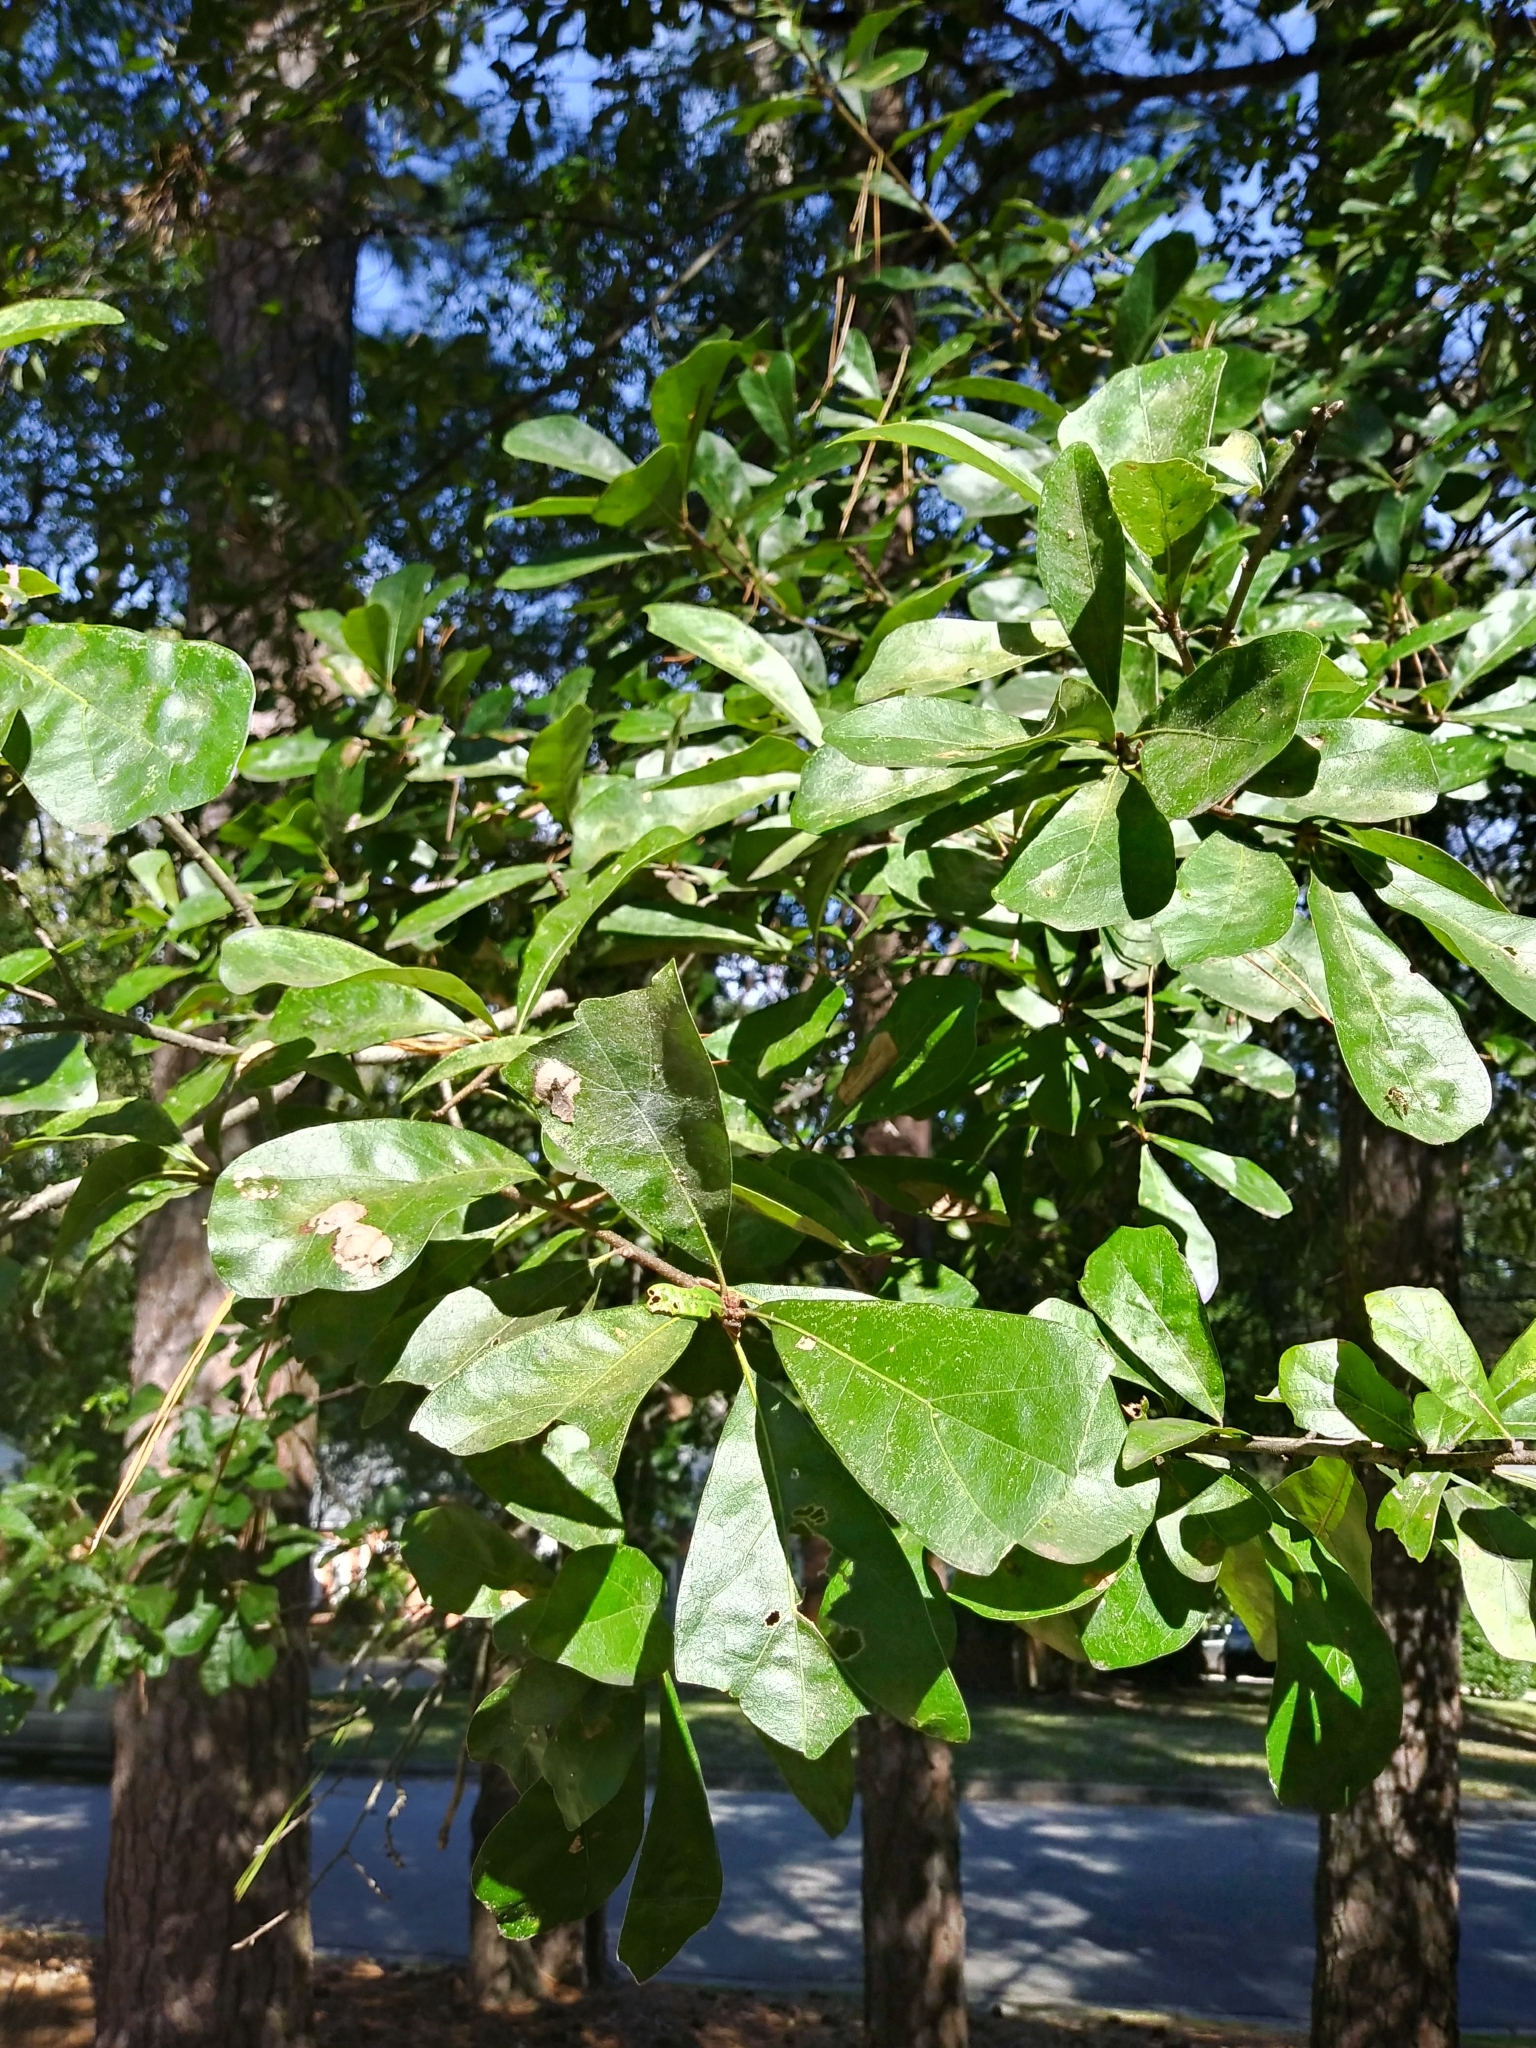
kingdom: Plantae
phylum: Tracheophyta
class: Magnoliopsida
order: Fagales
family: Fagaceae
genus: Quercus
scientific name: Quercus nigra
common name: Water oak
